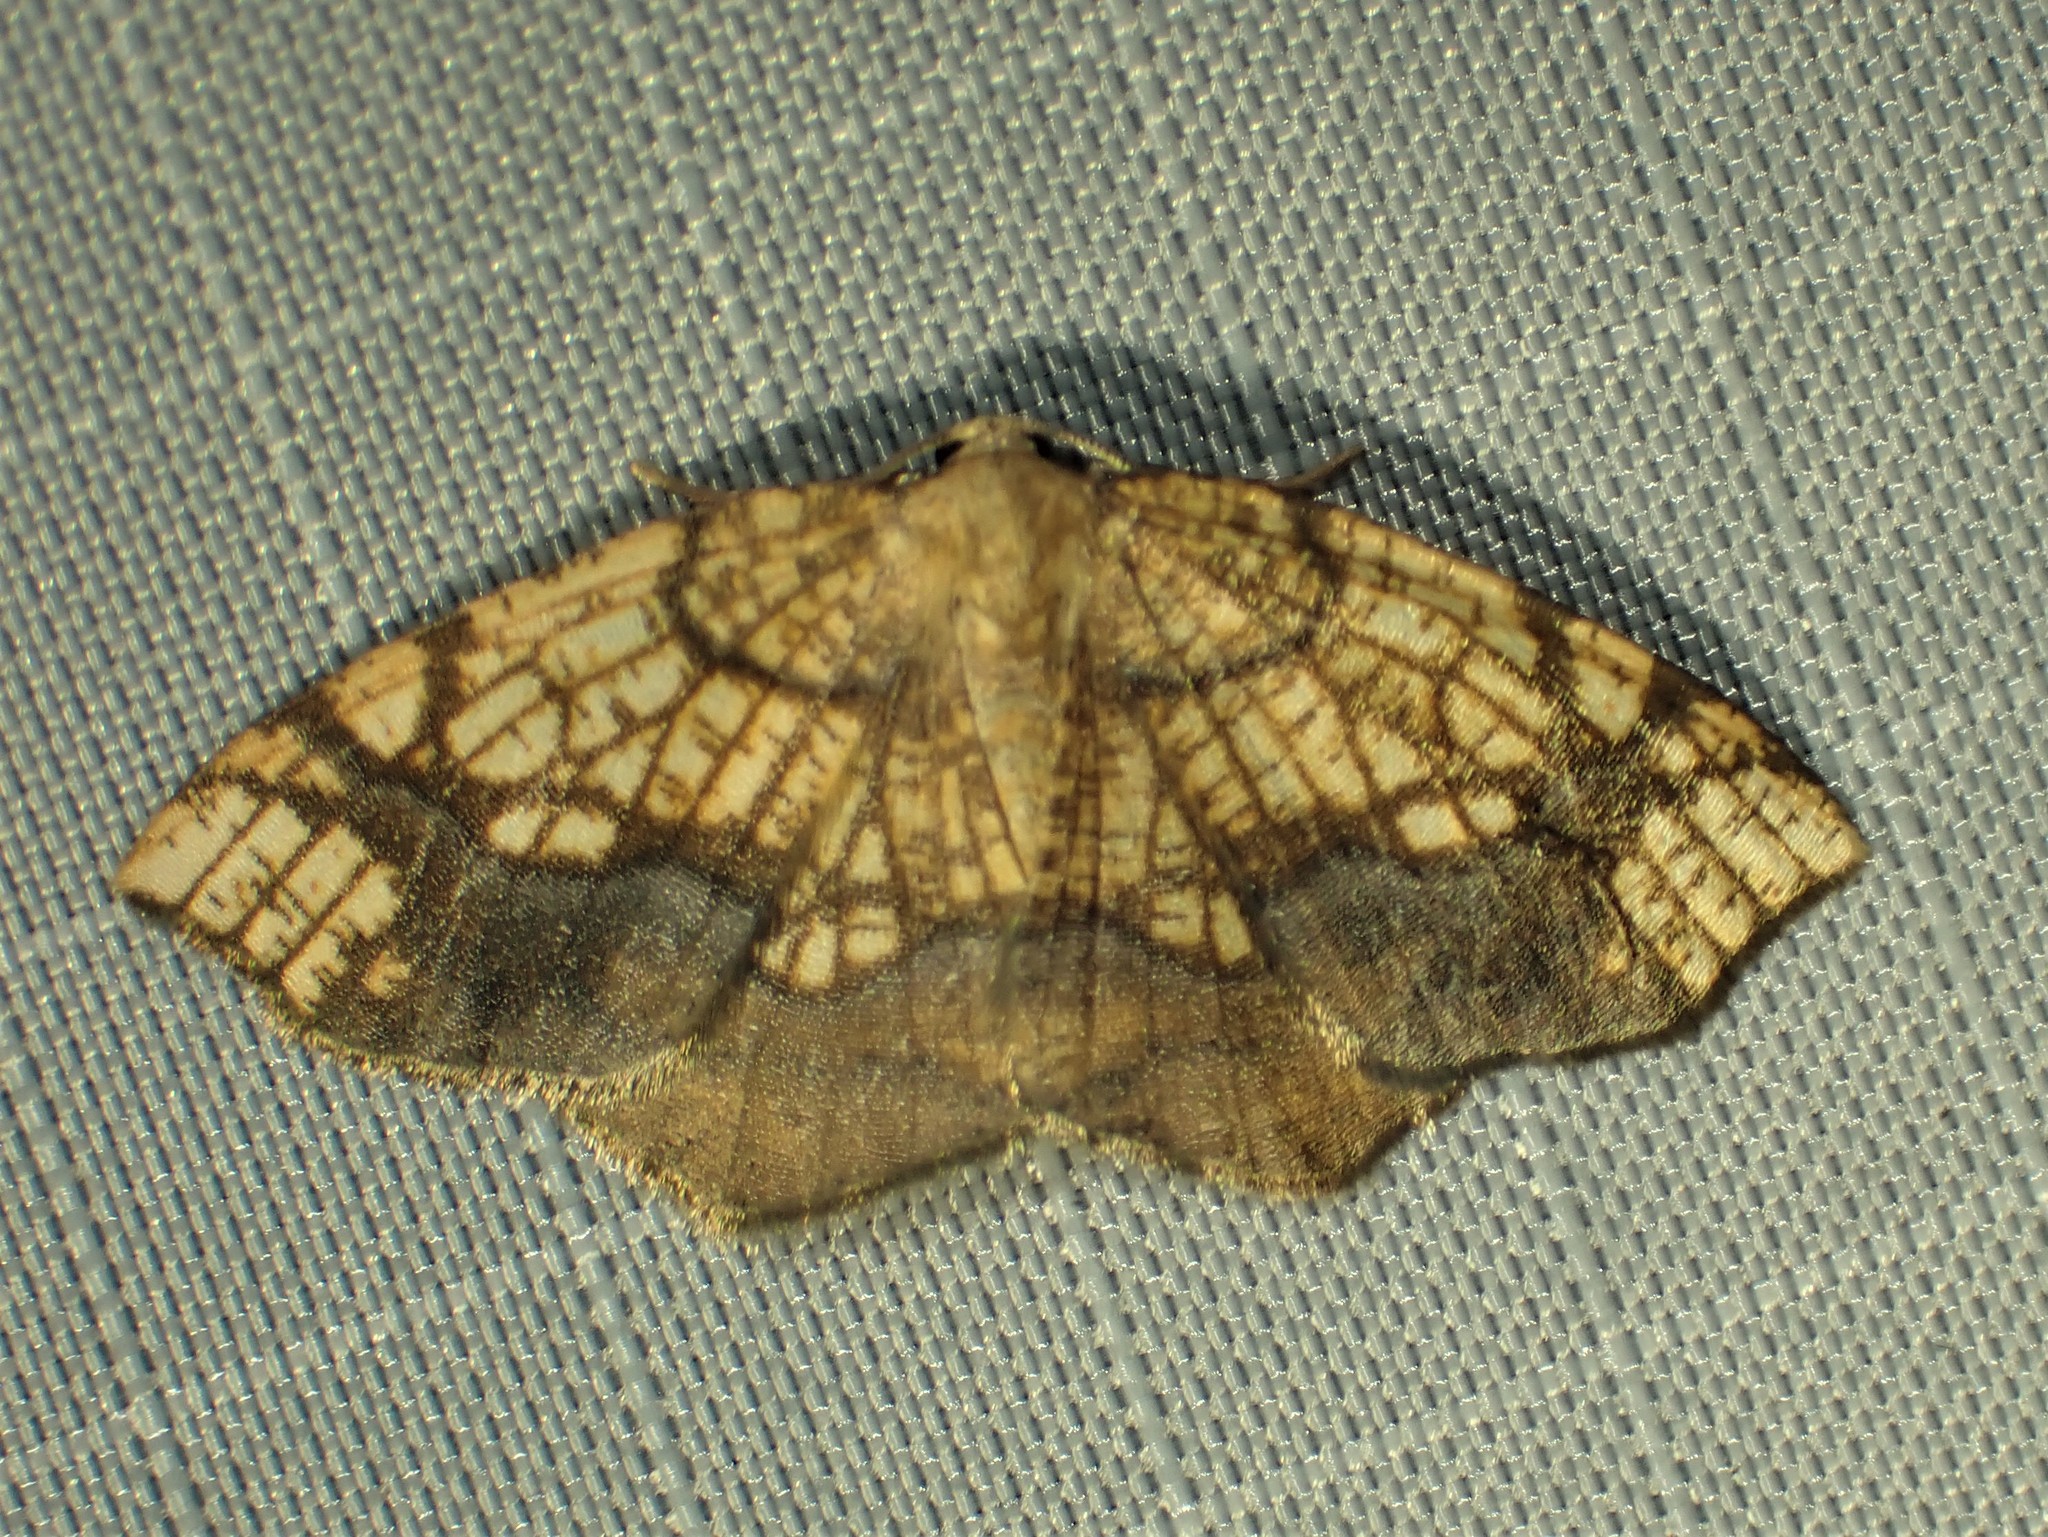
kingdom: Animalia
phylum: Arthropoda
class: Insecta
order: Lepidoptera
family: Geometridae
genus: Nematocampa
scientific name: Nematocampa resistaria
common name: Horned spanworm moth
